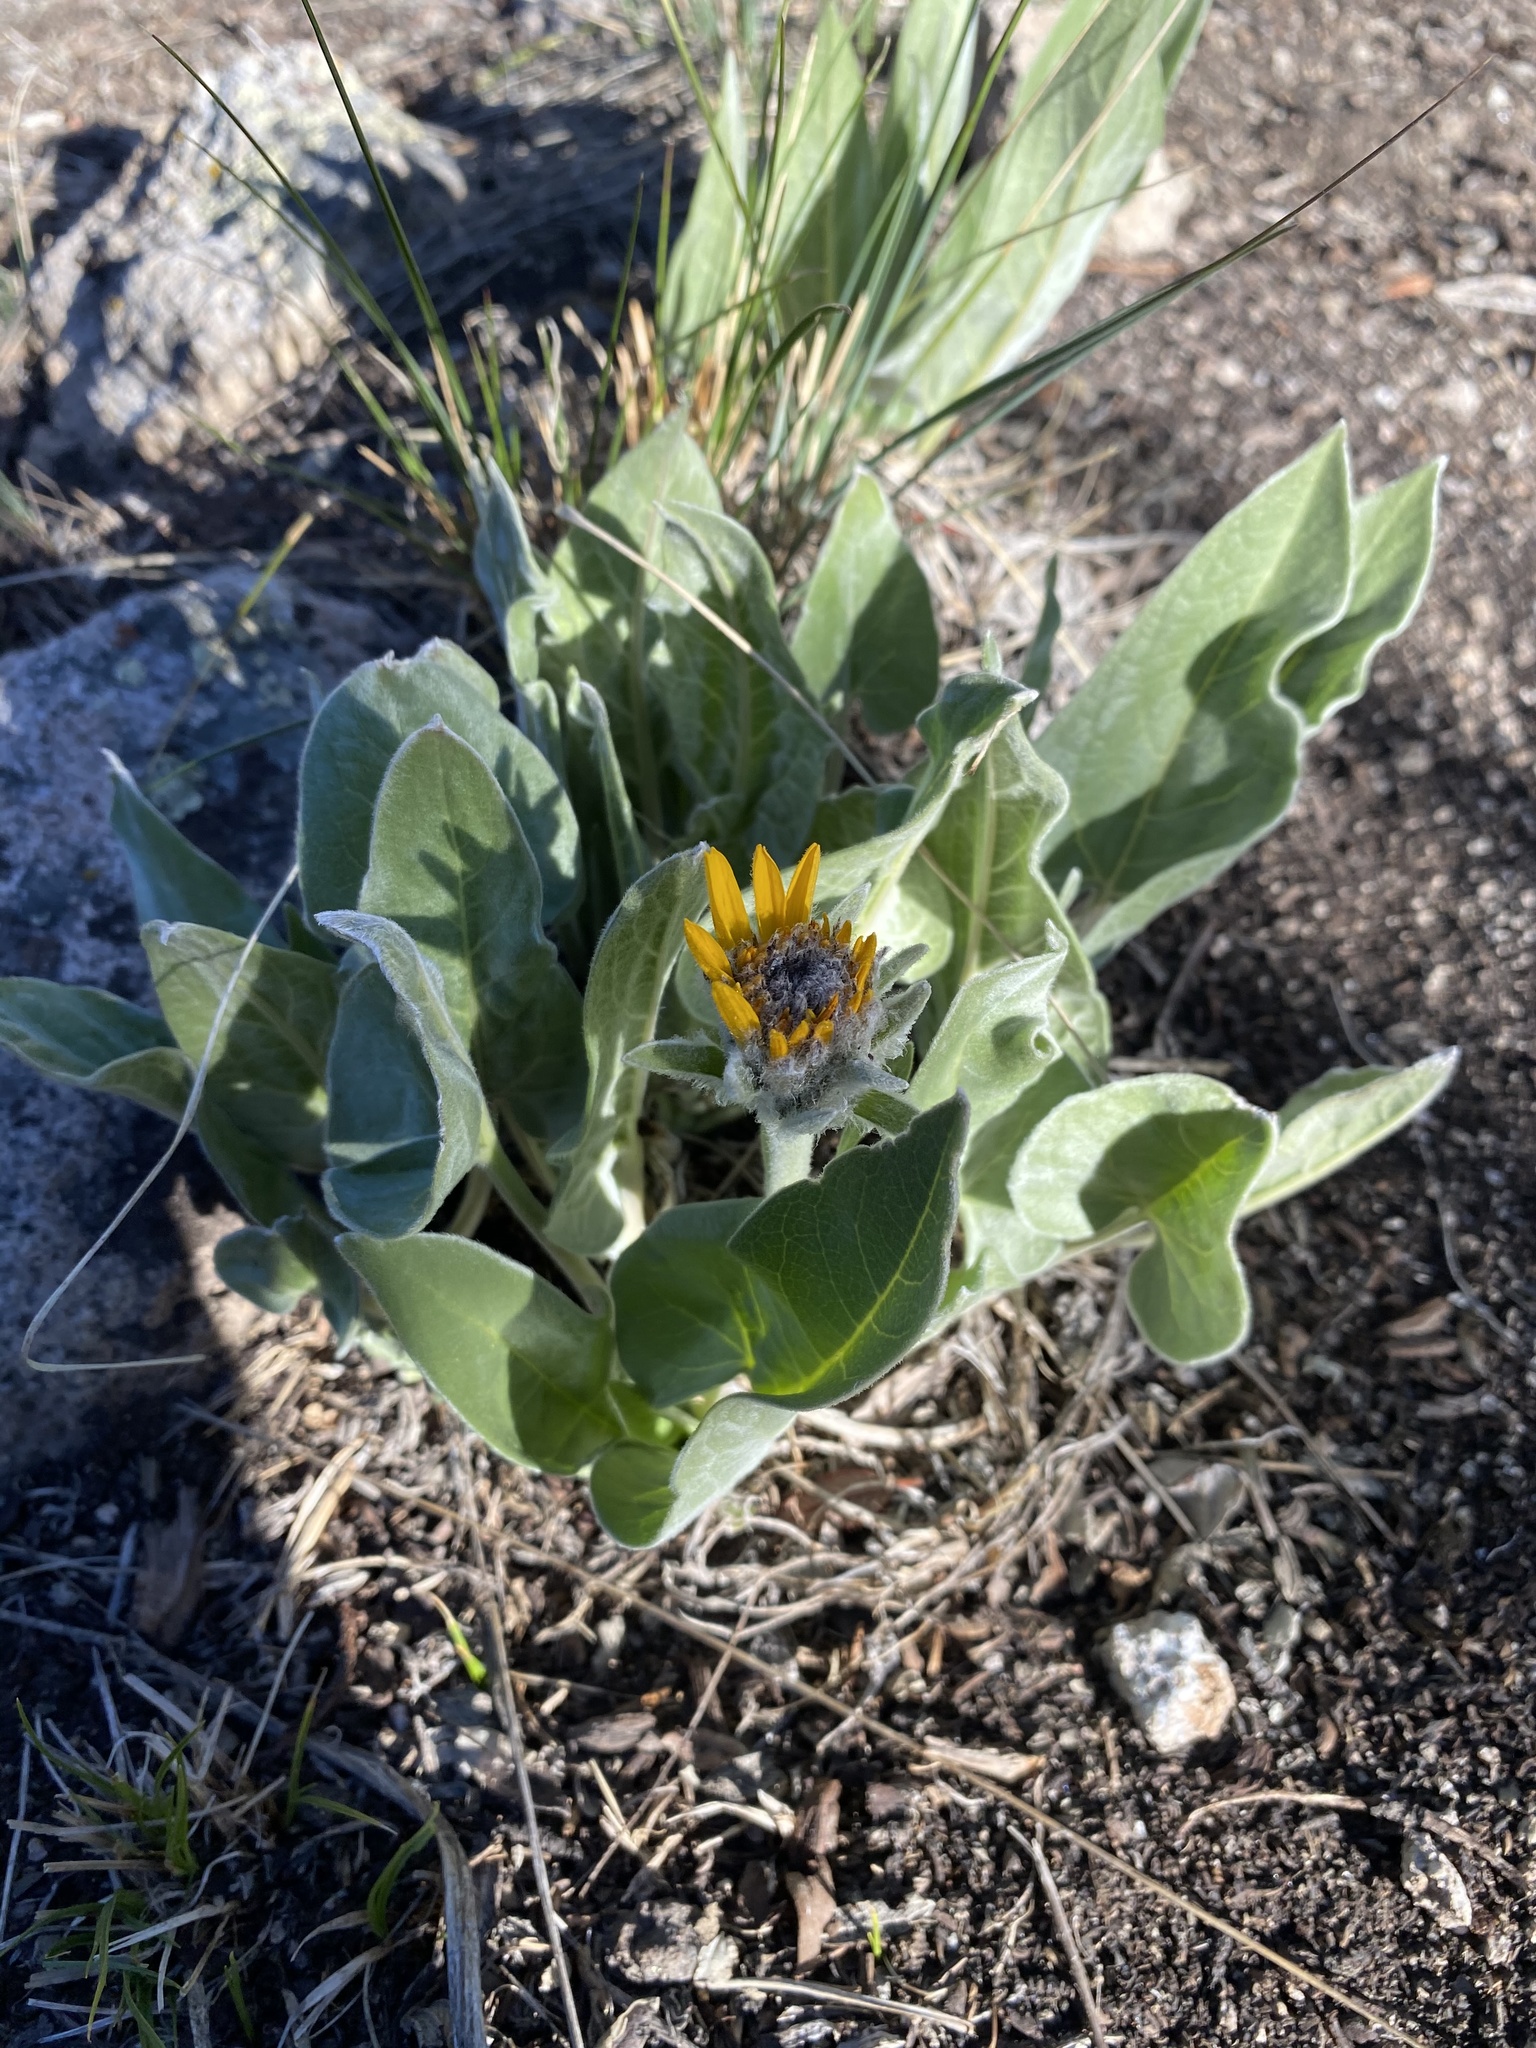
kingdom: Plantae
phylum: Tracheophyta
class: Magnoliopsida
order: Asterales
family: Asteraceae
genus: Wyethia
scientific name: Wyethia sagittata
